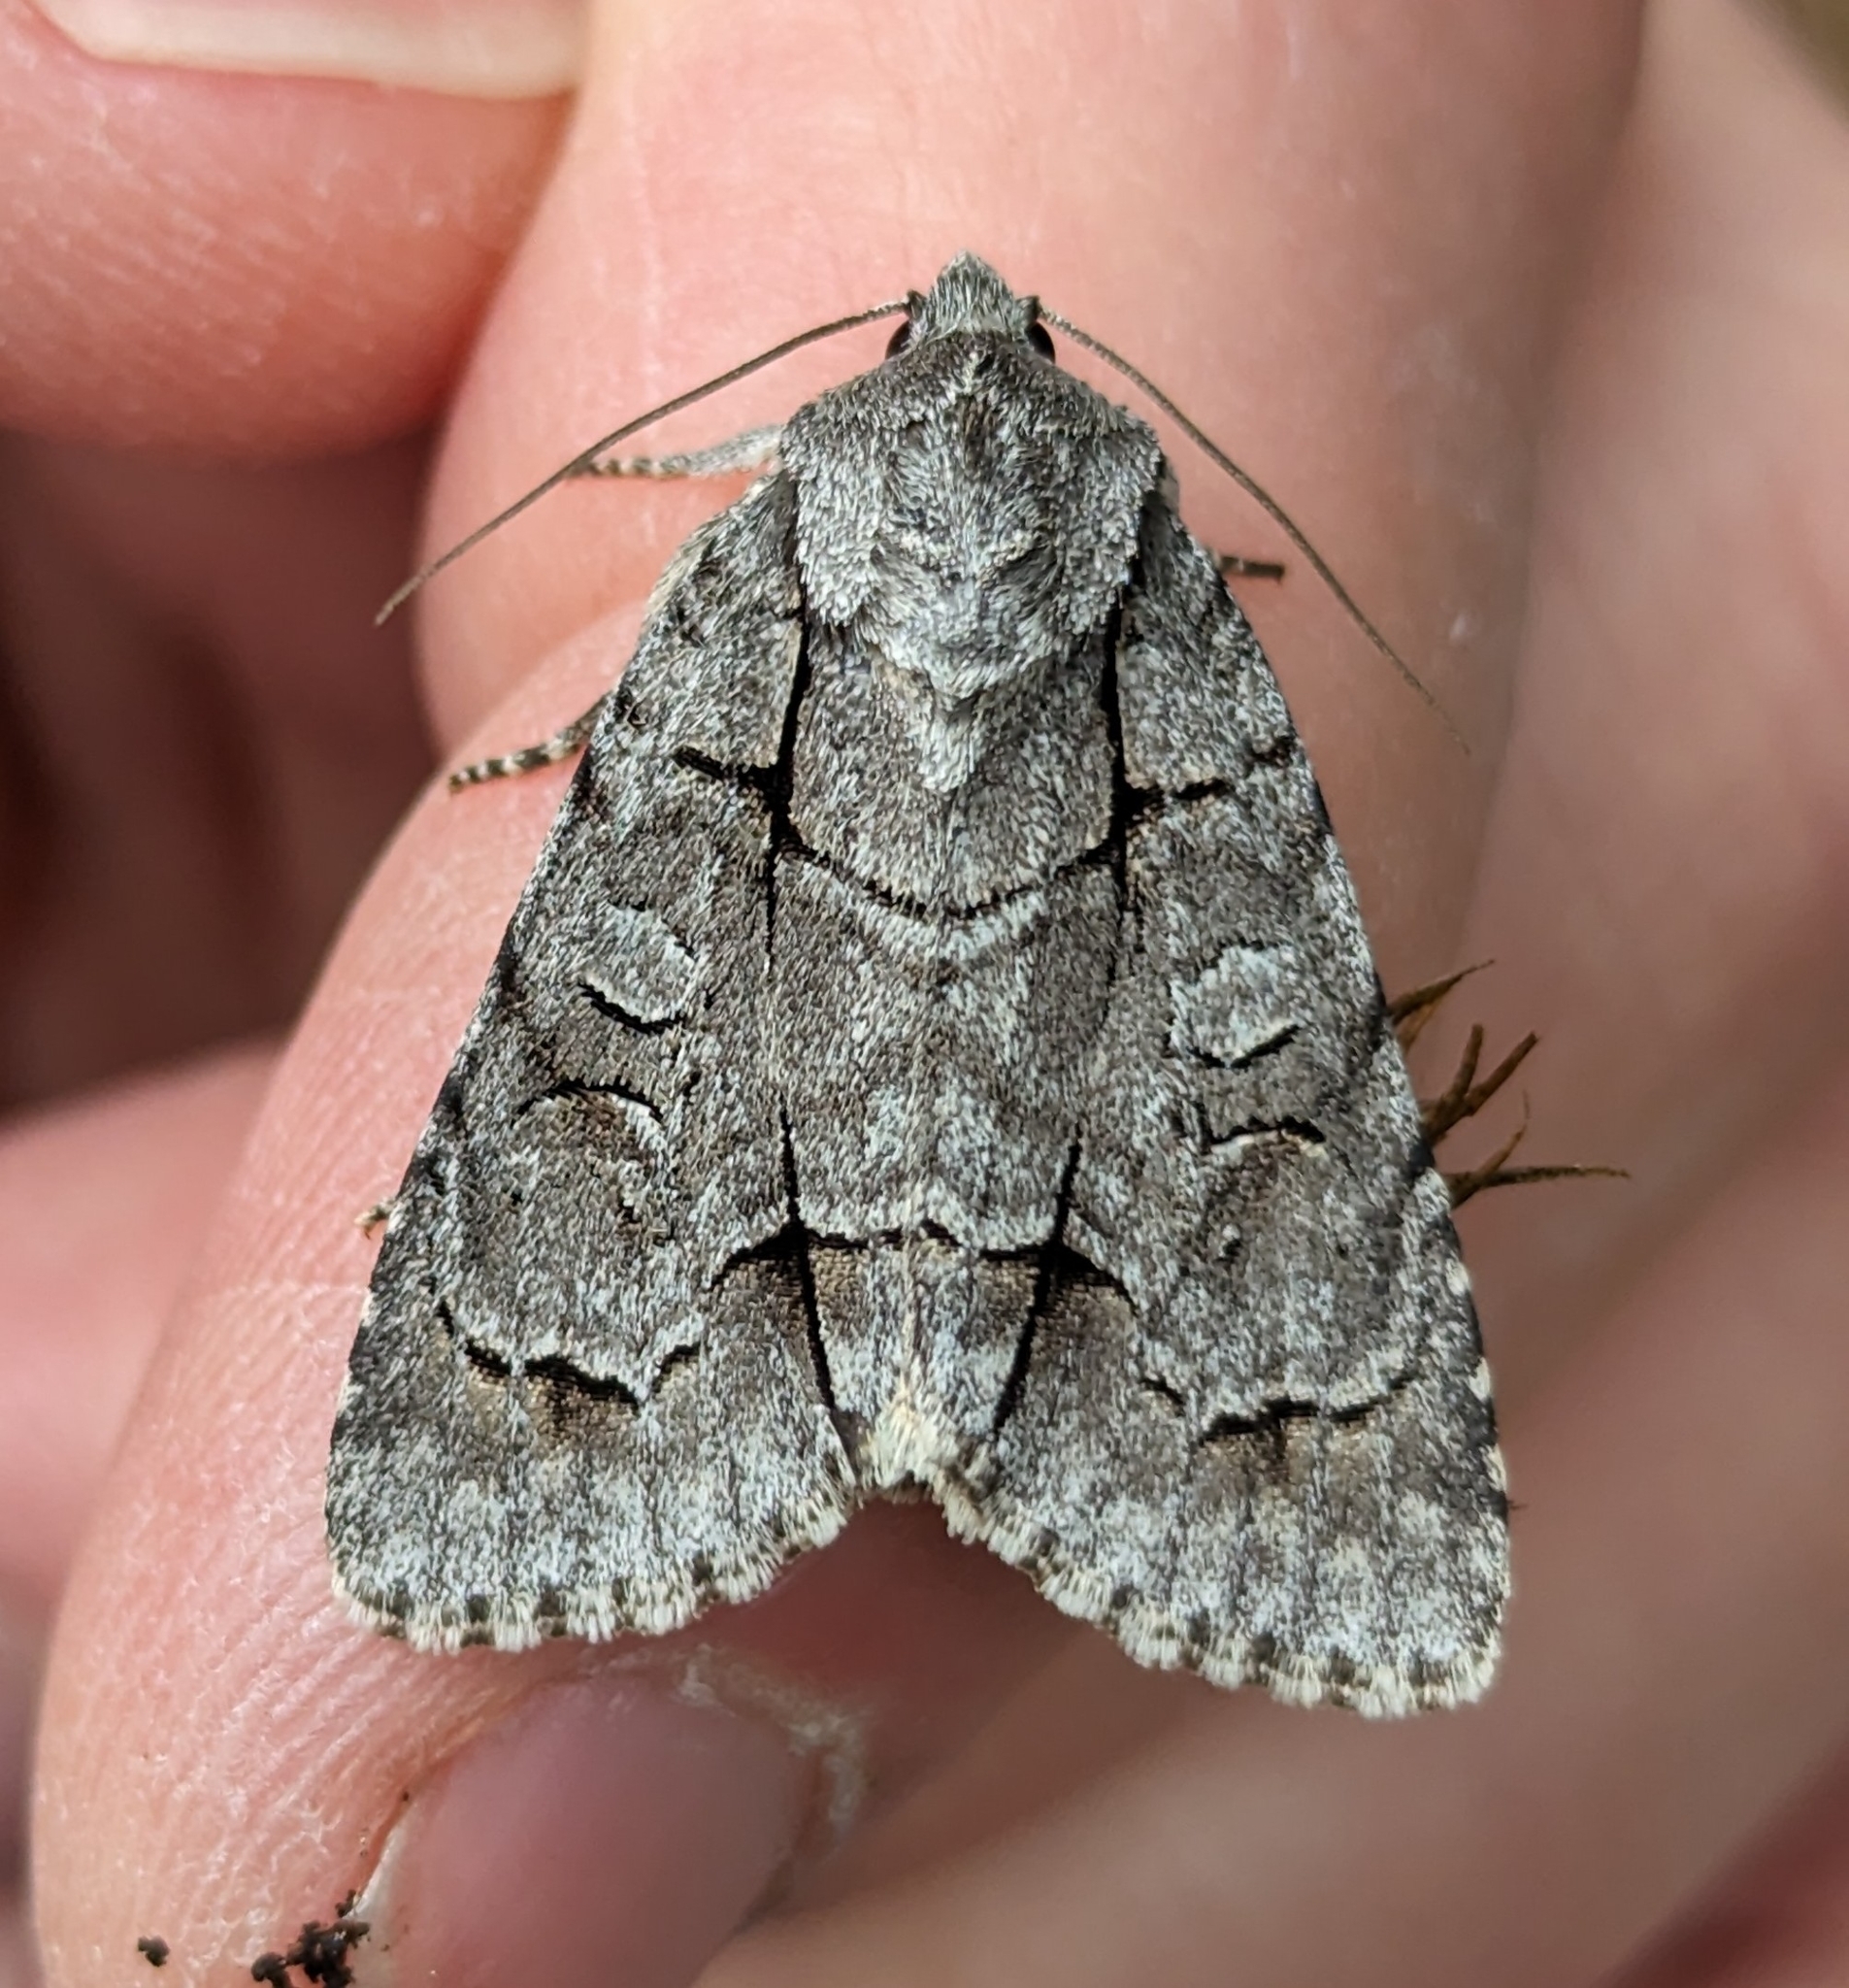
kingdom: Animalia
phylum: Arthropoda
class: Insecta
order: Lepidoptera
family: Noctuidae
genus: Acronicta
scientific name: Acronicta radcliffei
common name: Radcliffe's dagger
